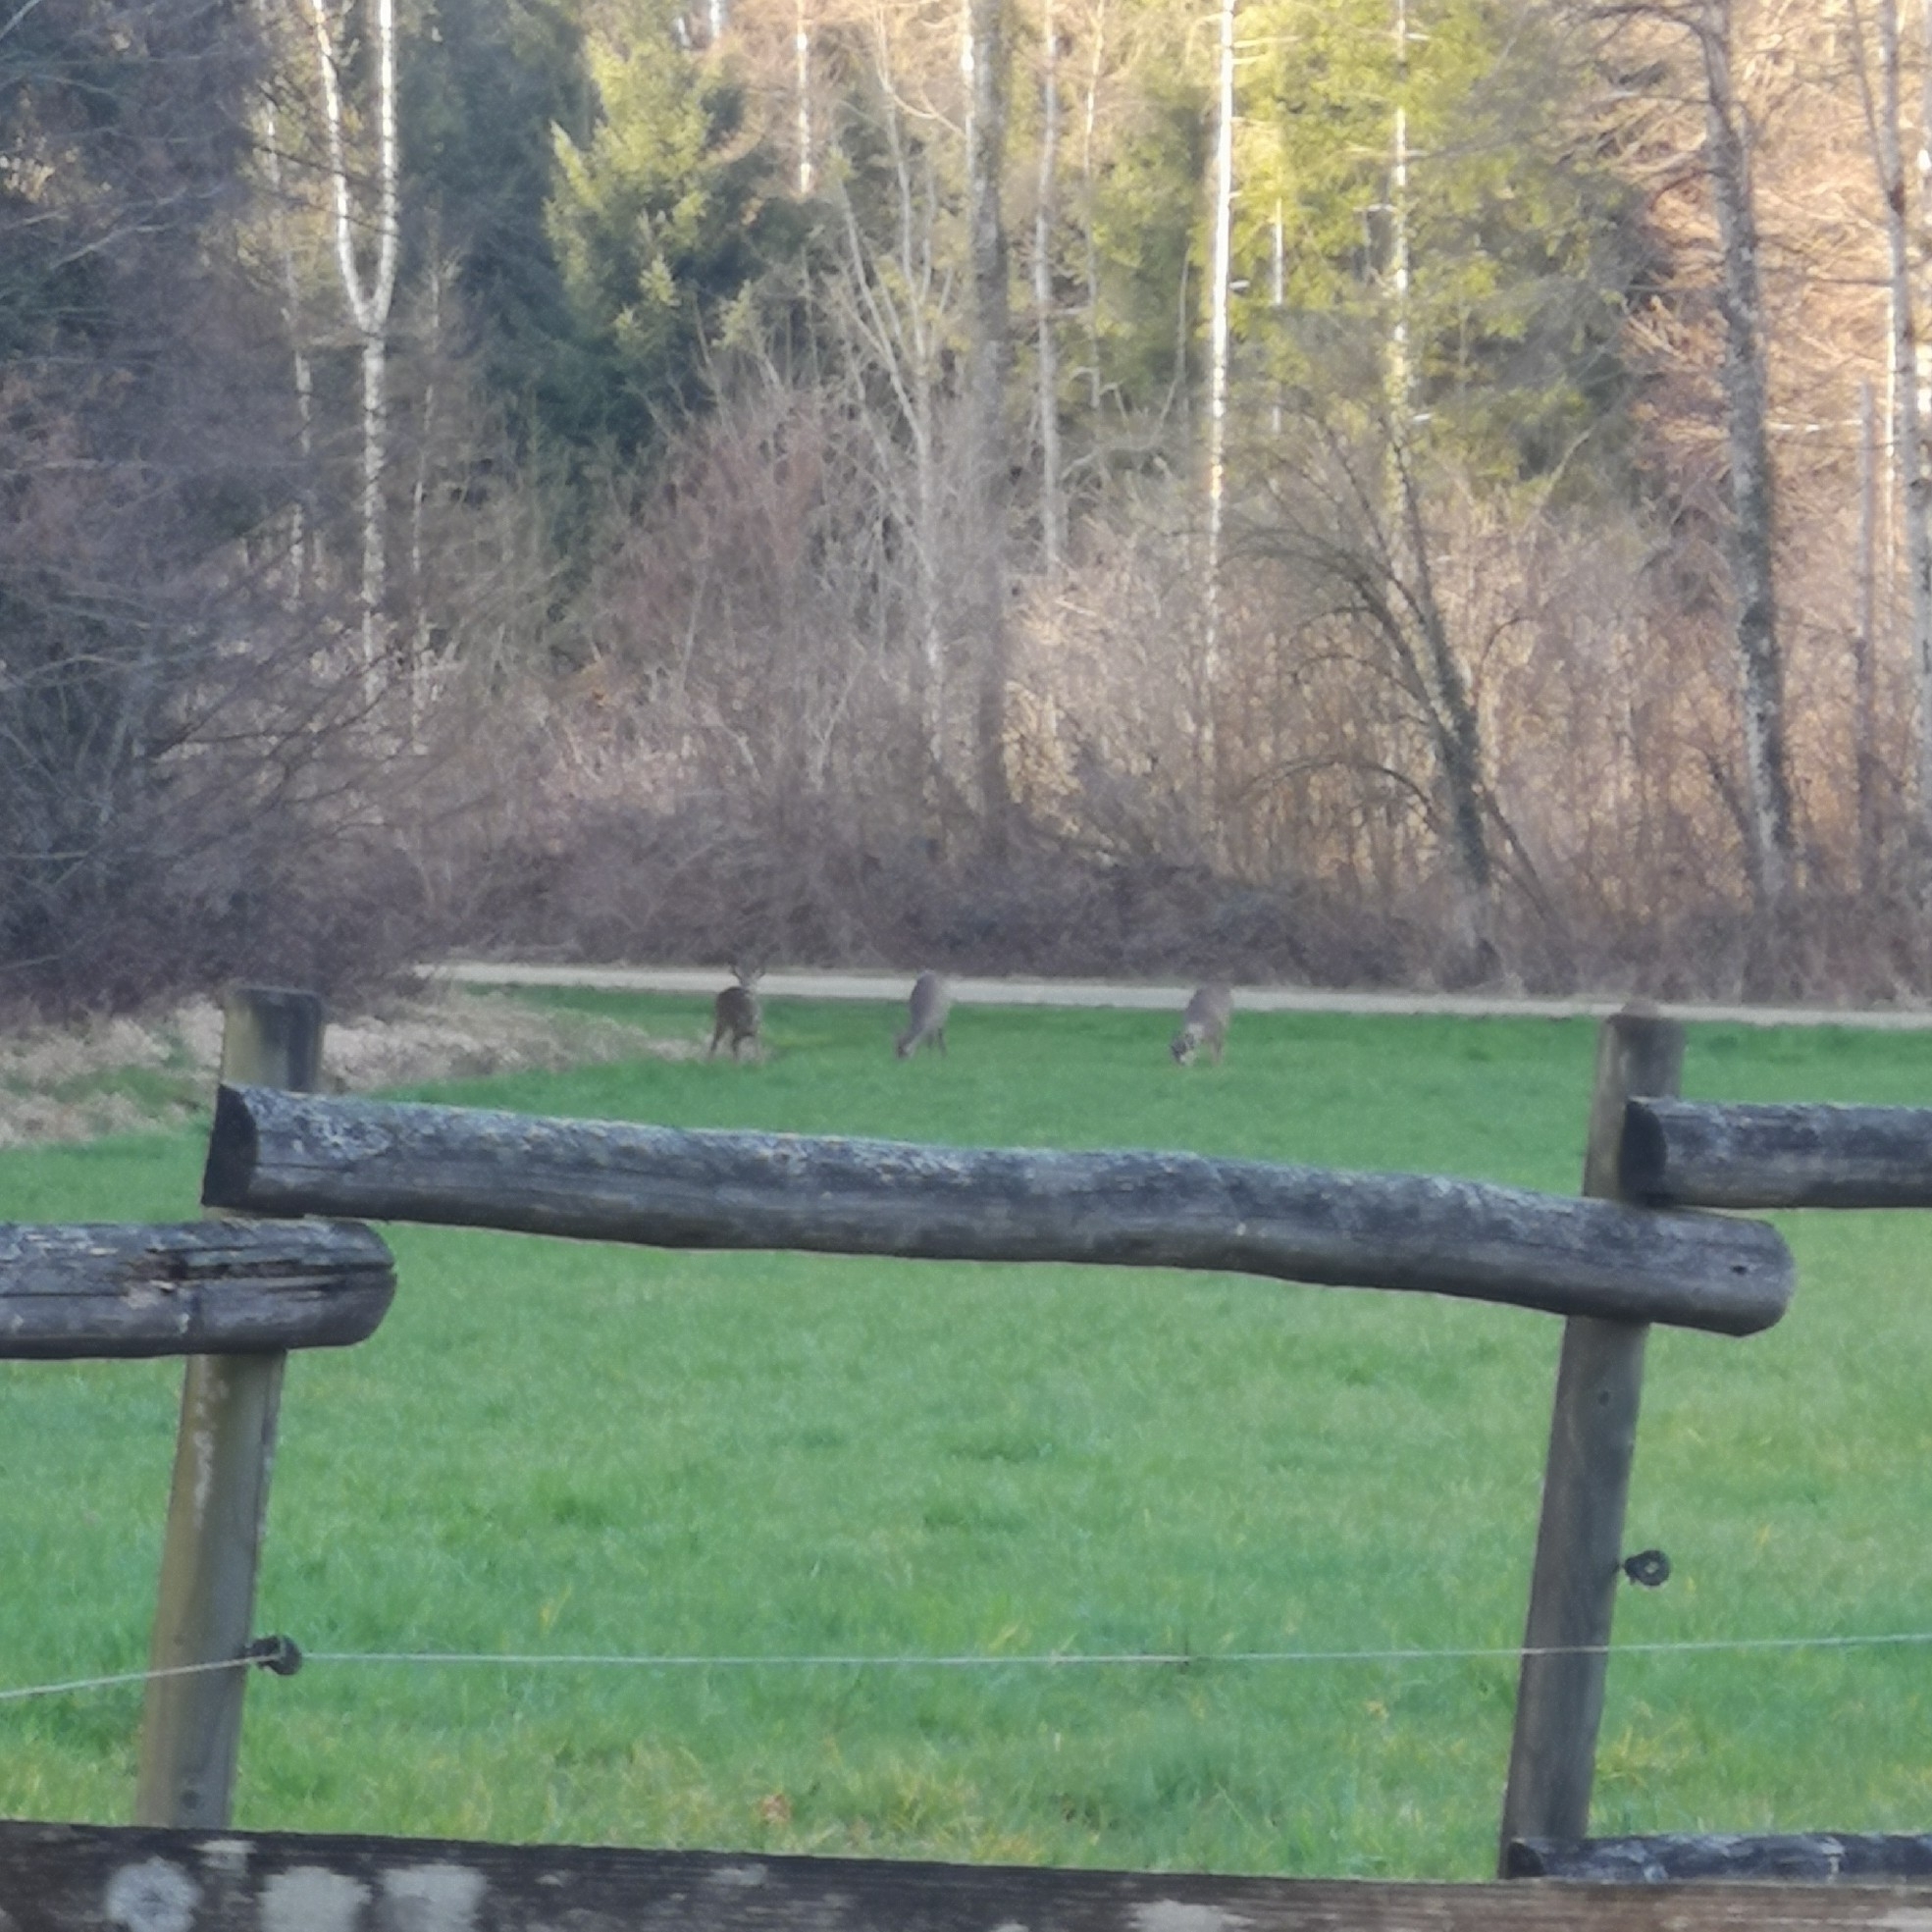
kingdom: Animalia
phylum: Chordata
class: Mammalia
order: Artiodactyla
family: Cervidae
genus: Capreolus
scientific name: Capreolus capreolus
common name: Western roe deer
